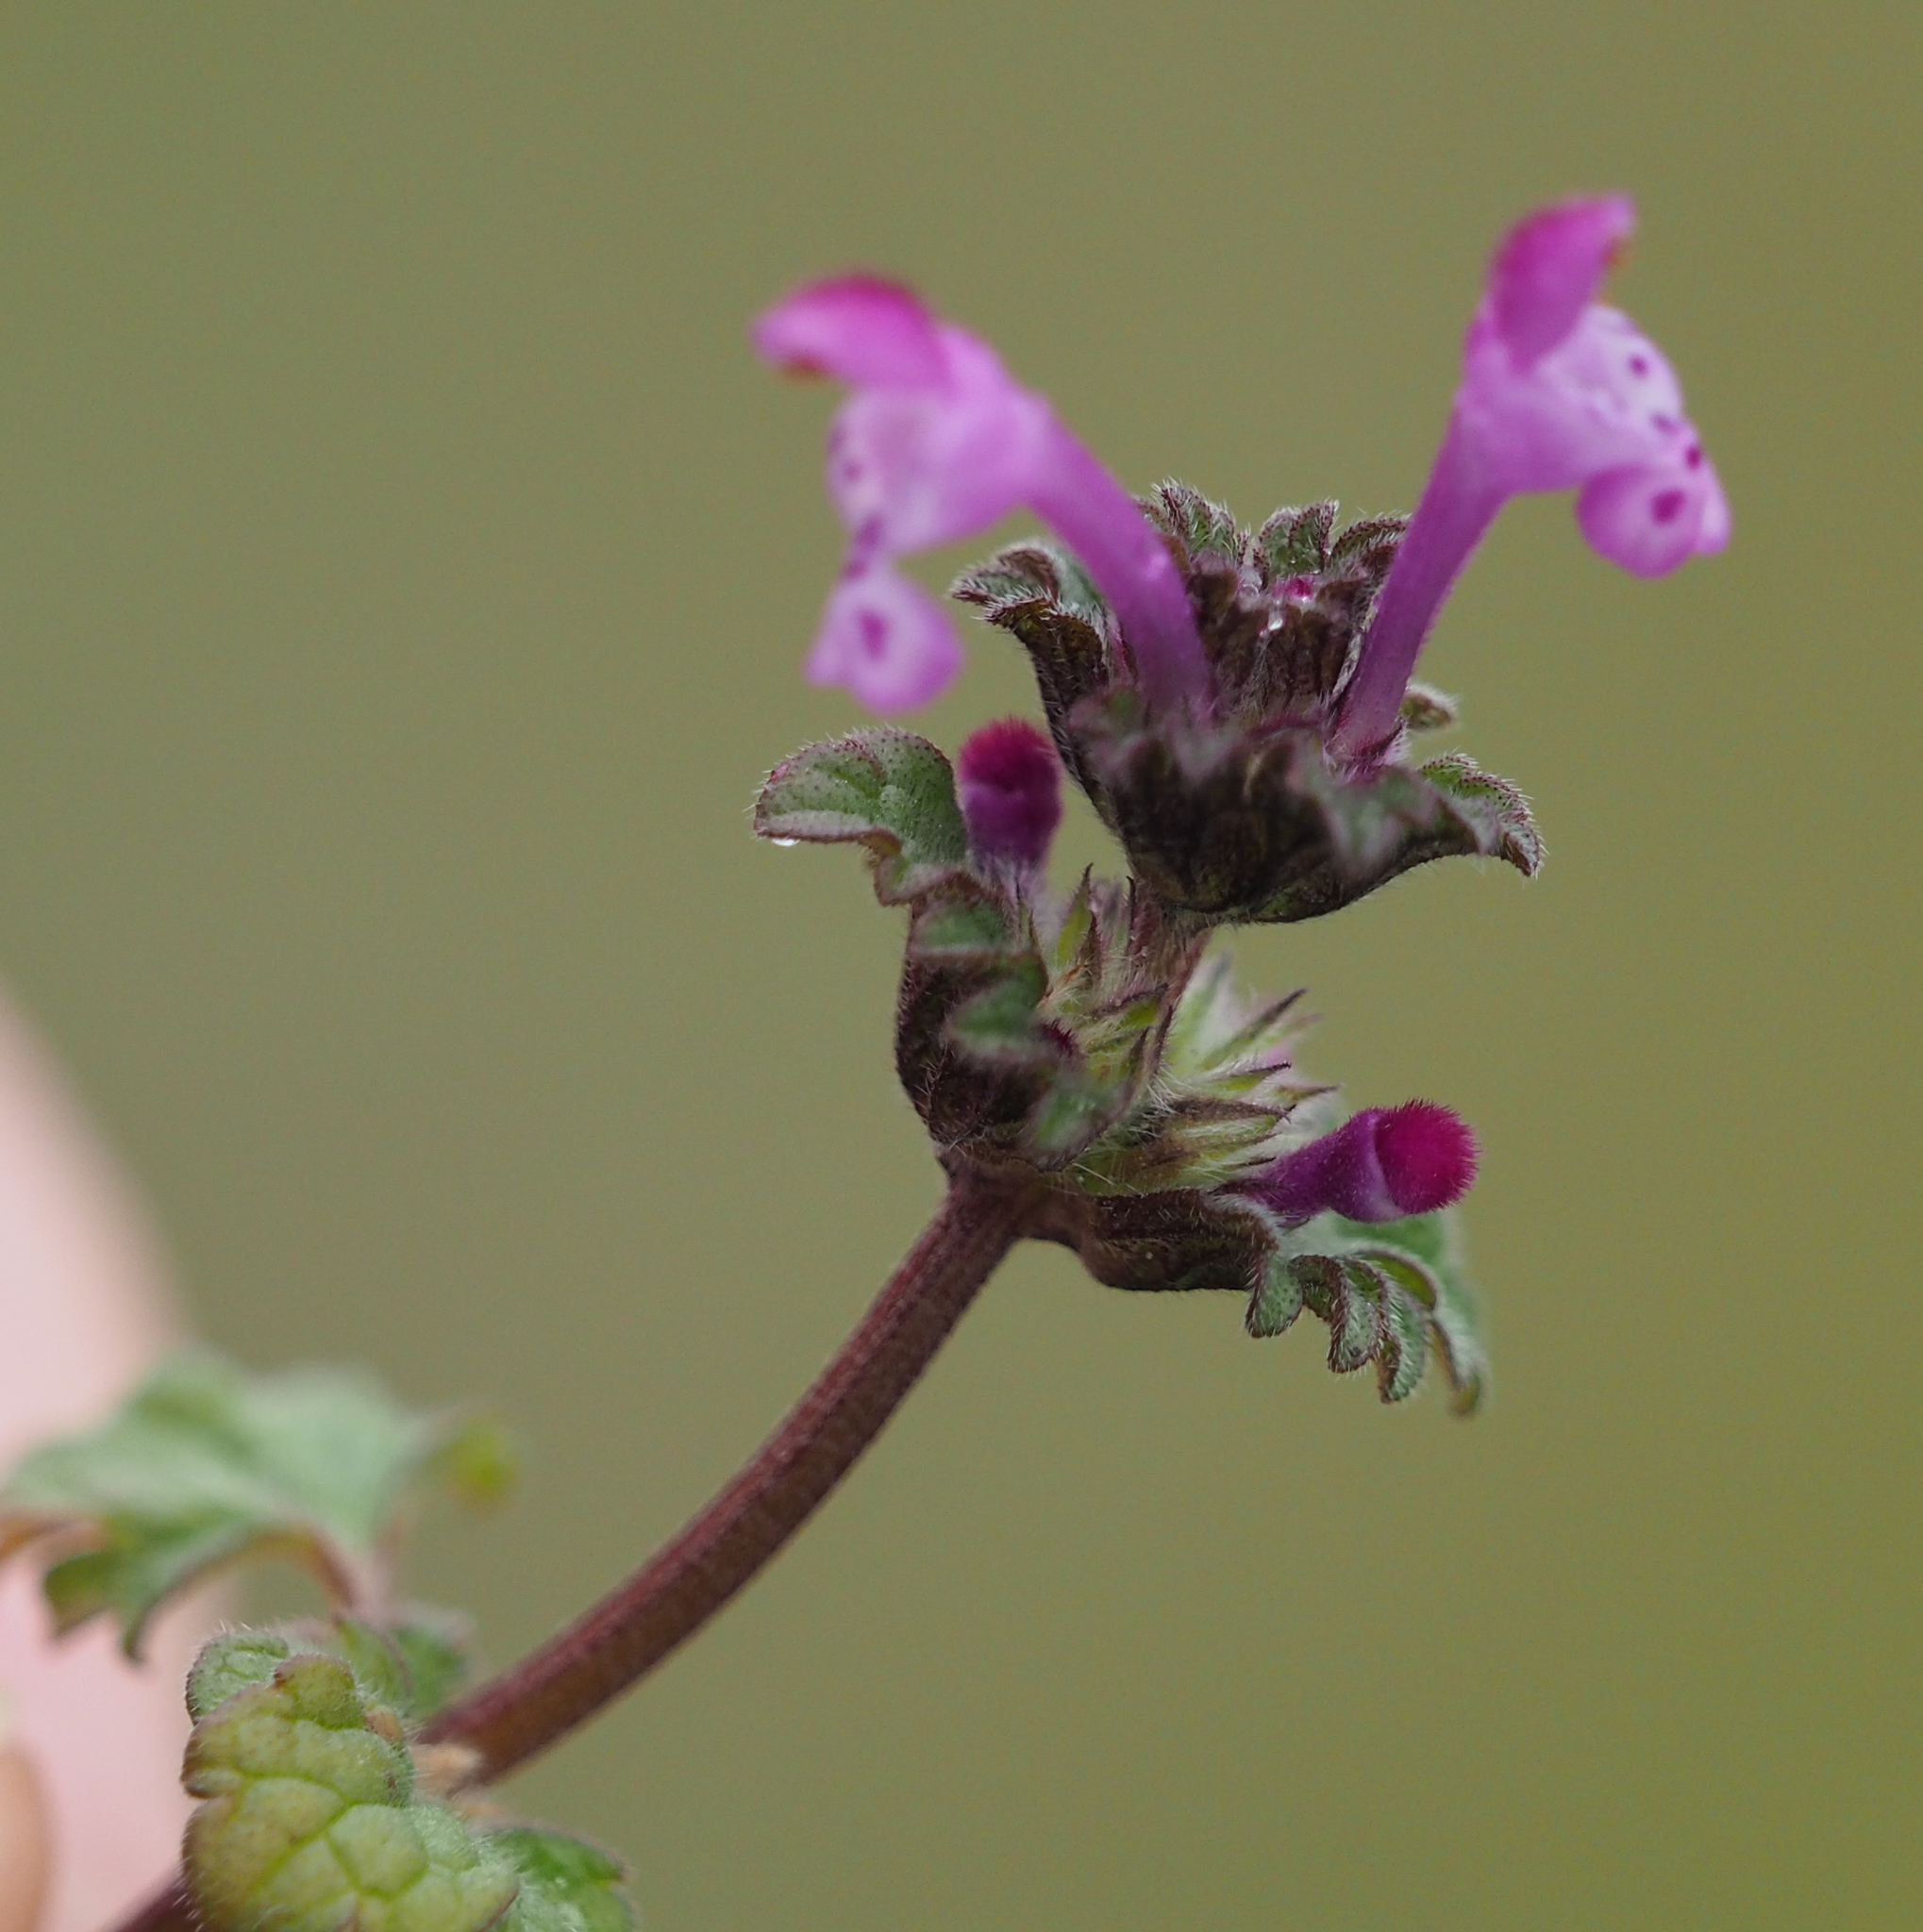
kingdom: Plantae
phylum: Tracheophyta
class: Magnoliopsida
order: Lamiales
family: Lamiaceae
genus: Lamium
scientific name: Lamium amplexicaule
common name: Henbit dead-nettle
